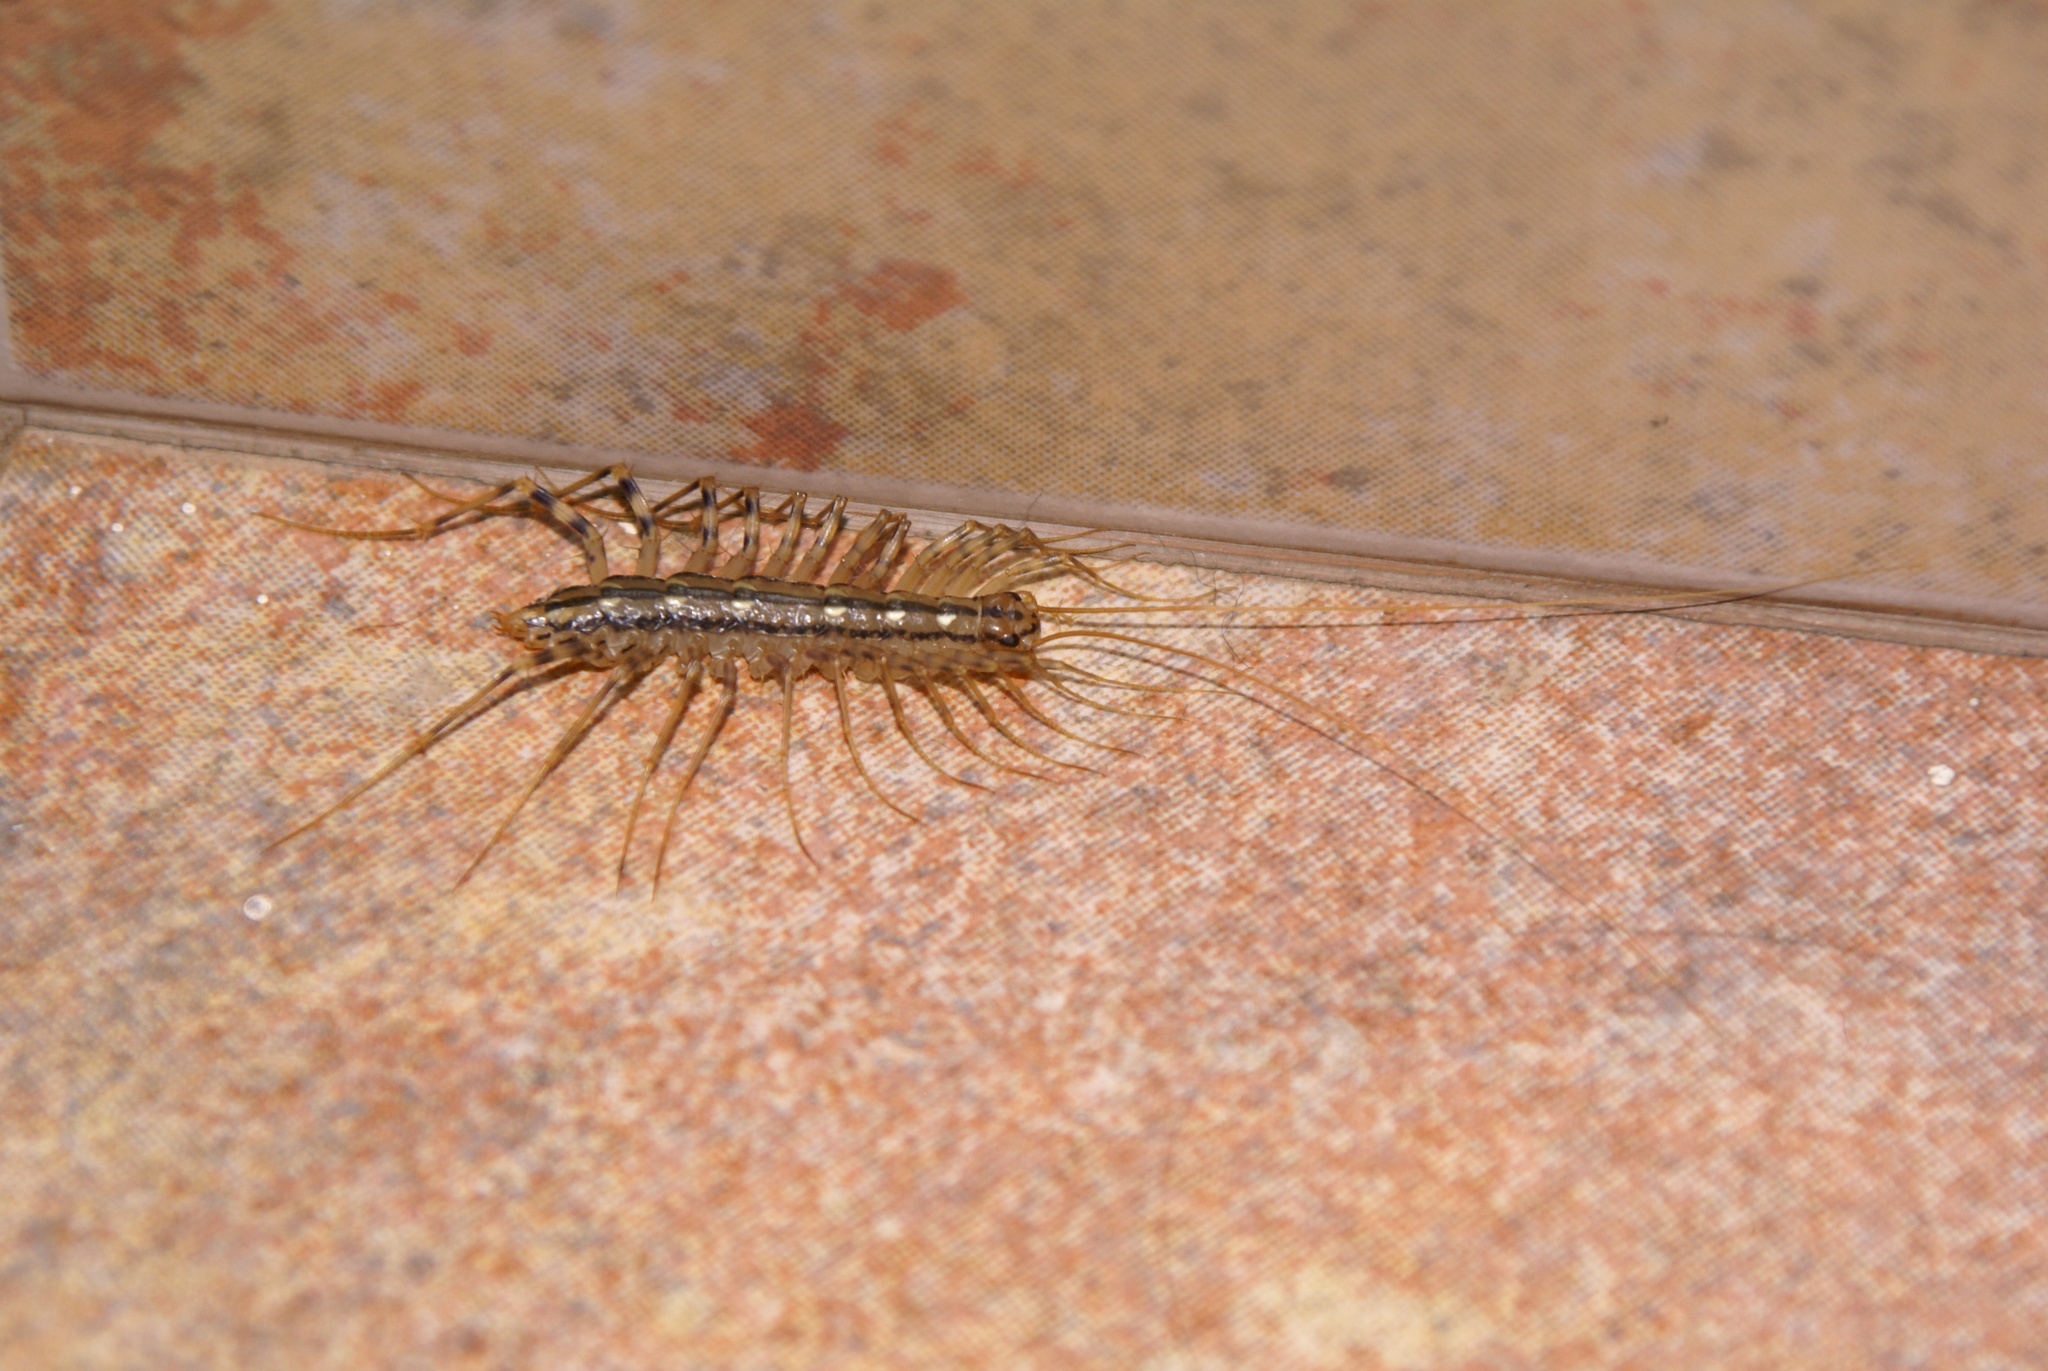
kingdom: Animalia
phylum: Arthropoda
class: Chilopoda
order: Scutigeromorpha
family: Scutigeridae
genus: Scutigera
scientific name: Scutigera coleoptrata
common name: House centipede
